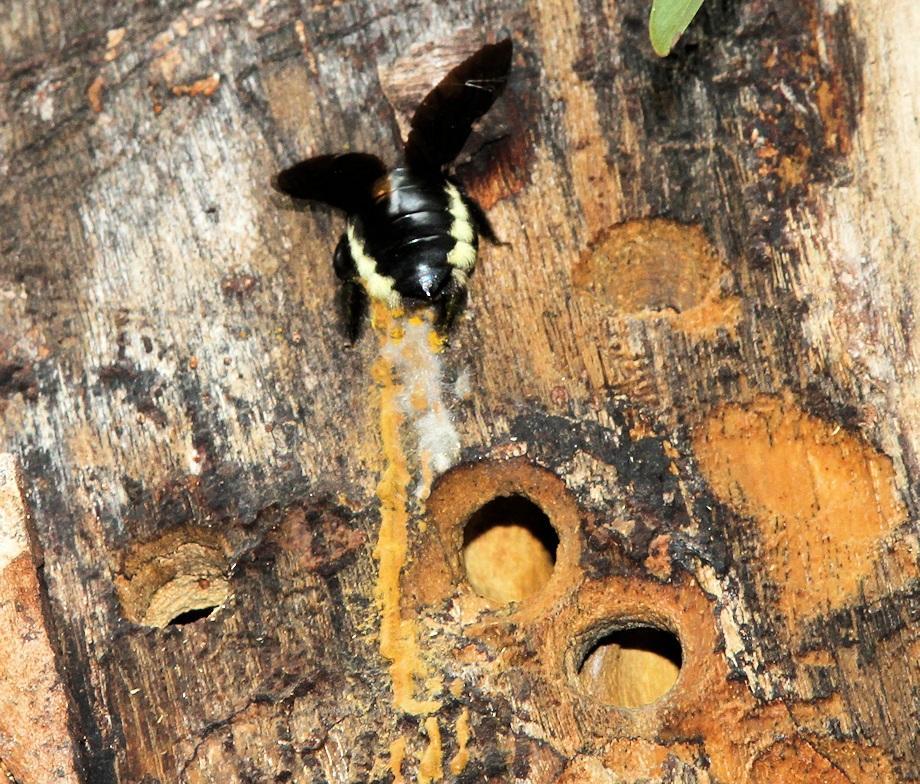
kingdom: Animalia
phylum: Arthropoda
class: Insecta
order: Hymenoptera
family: Apidae
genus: Xylocopa
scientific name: Xylocopa nigrita
